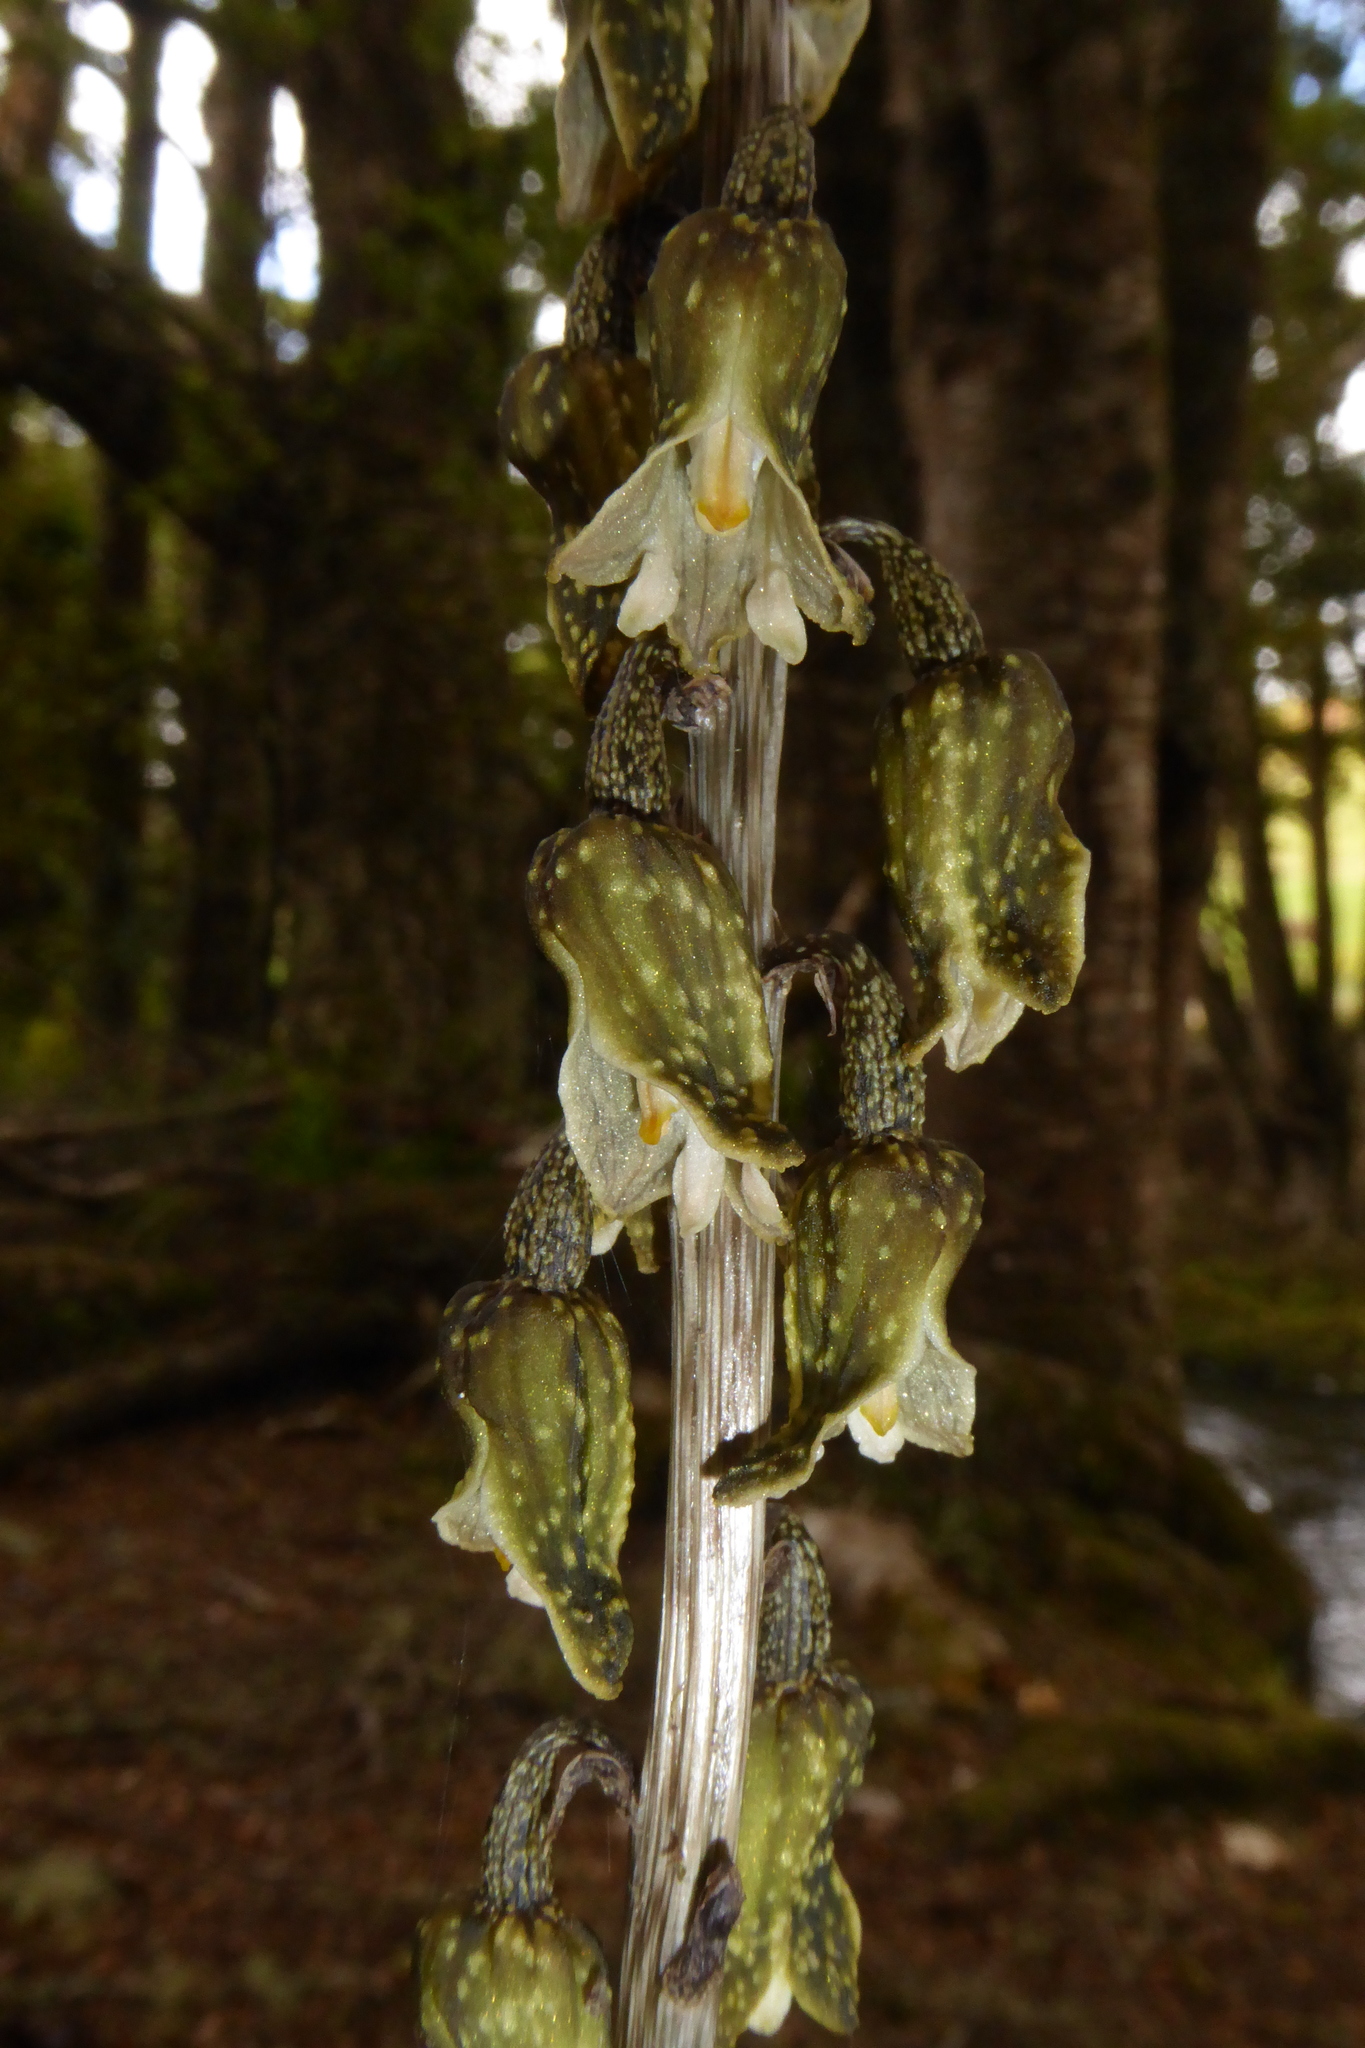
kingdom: Plantae
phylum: Tracheophyta
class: Liliopsida
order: Asparagales
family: Orchidaceae
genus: Gastrodia
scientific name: Gastrodia molloyi
